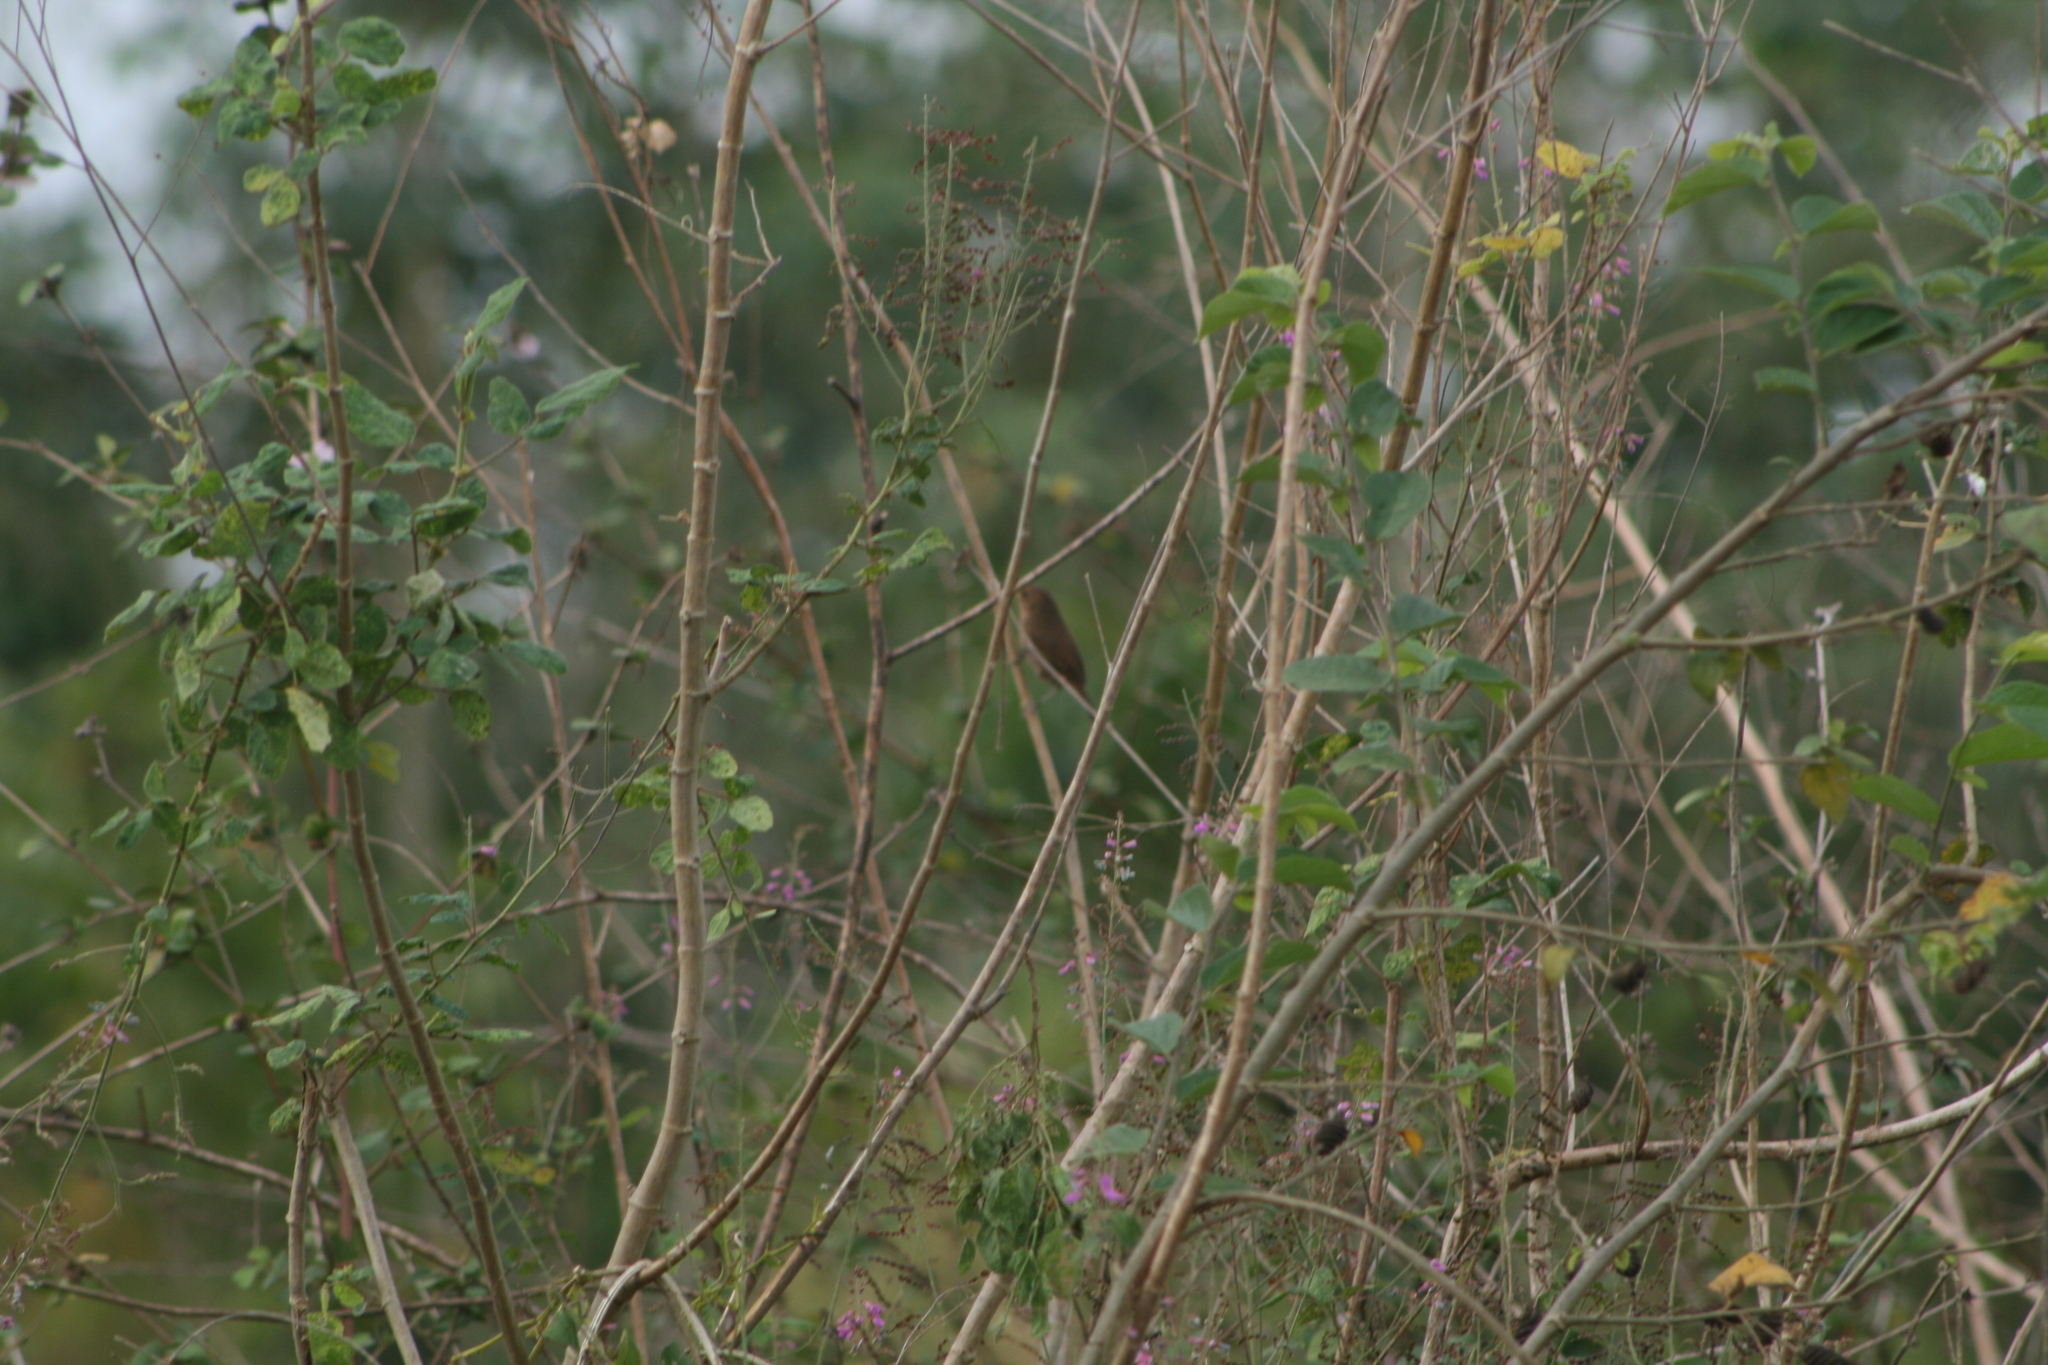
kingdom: Animalia
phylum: Chordata
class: Aves
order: Passeriformes
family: Troglodytidae
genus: Troglodytes
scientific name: Troglodytes aedon
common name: House wren
